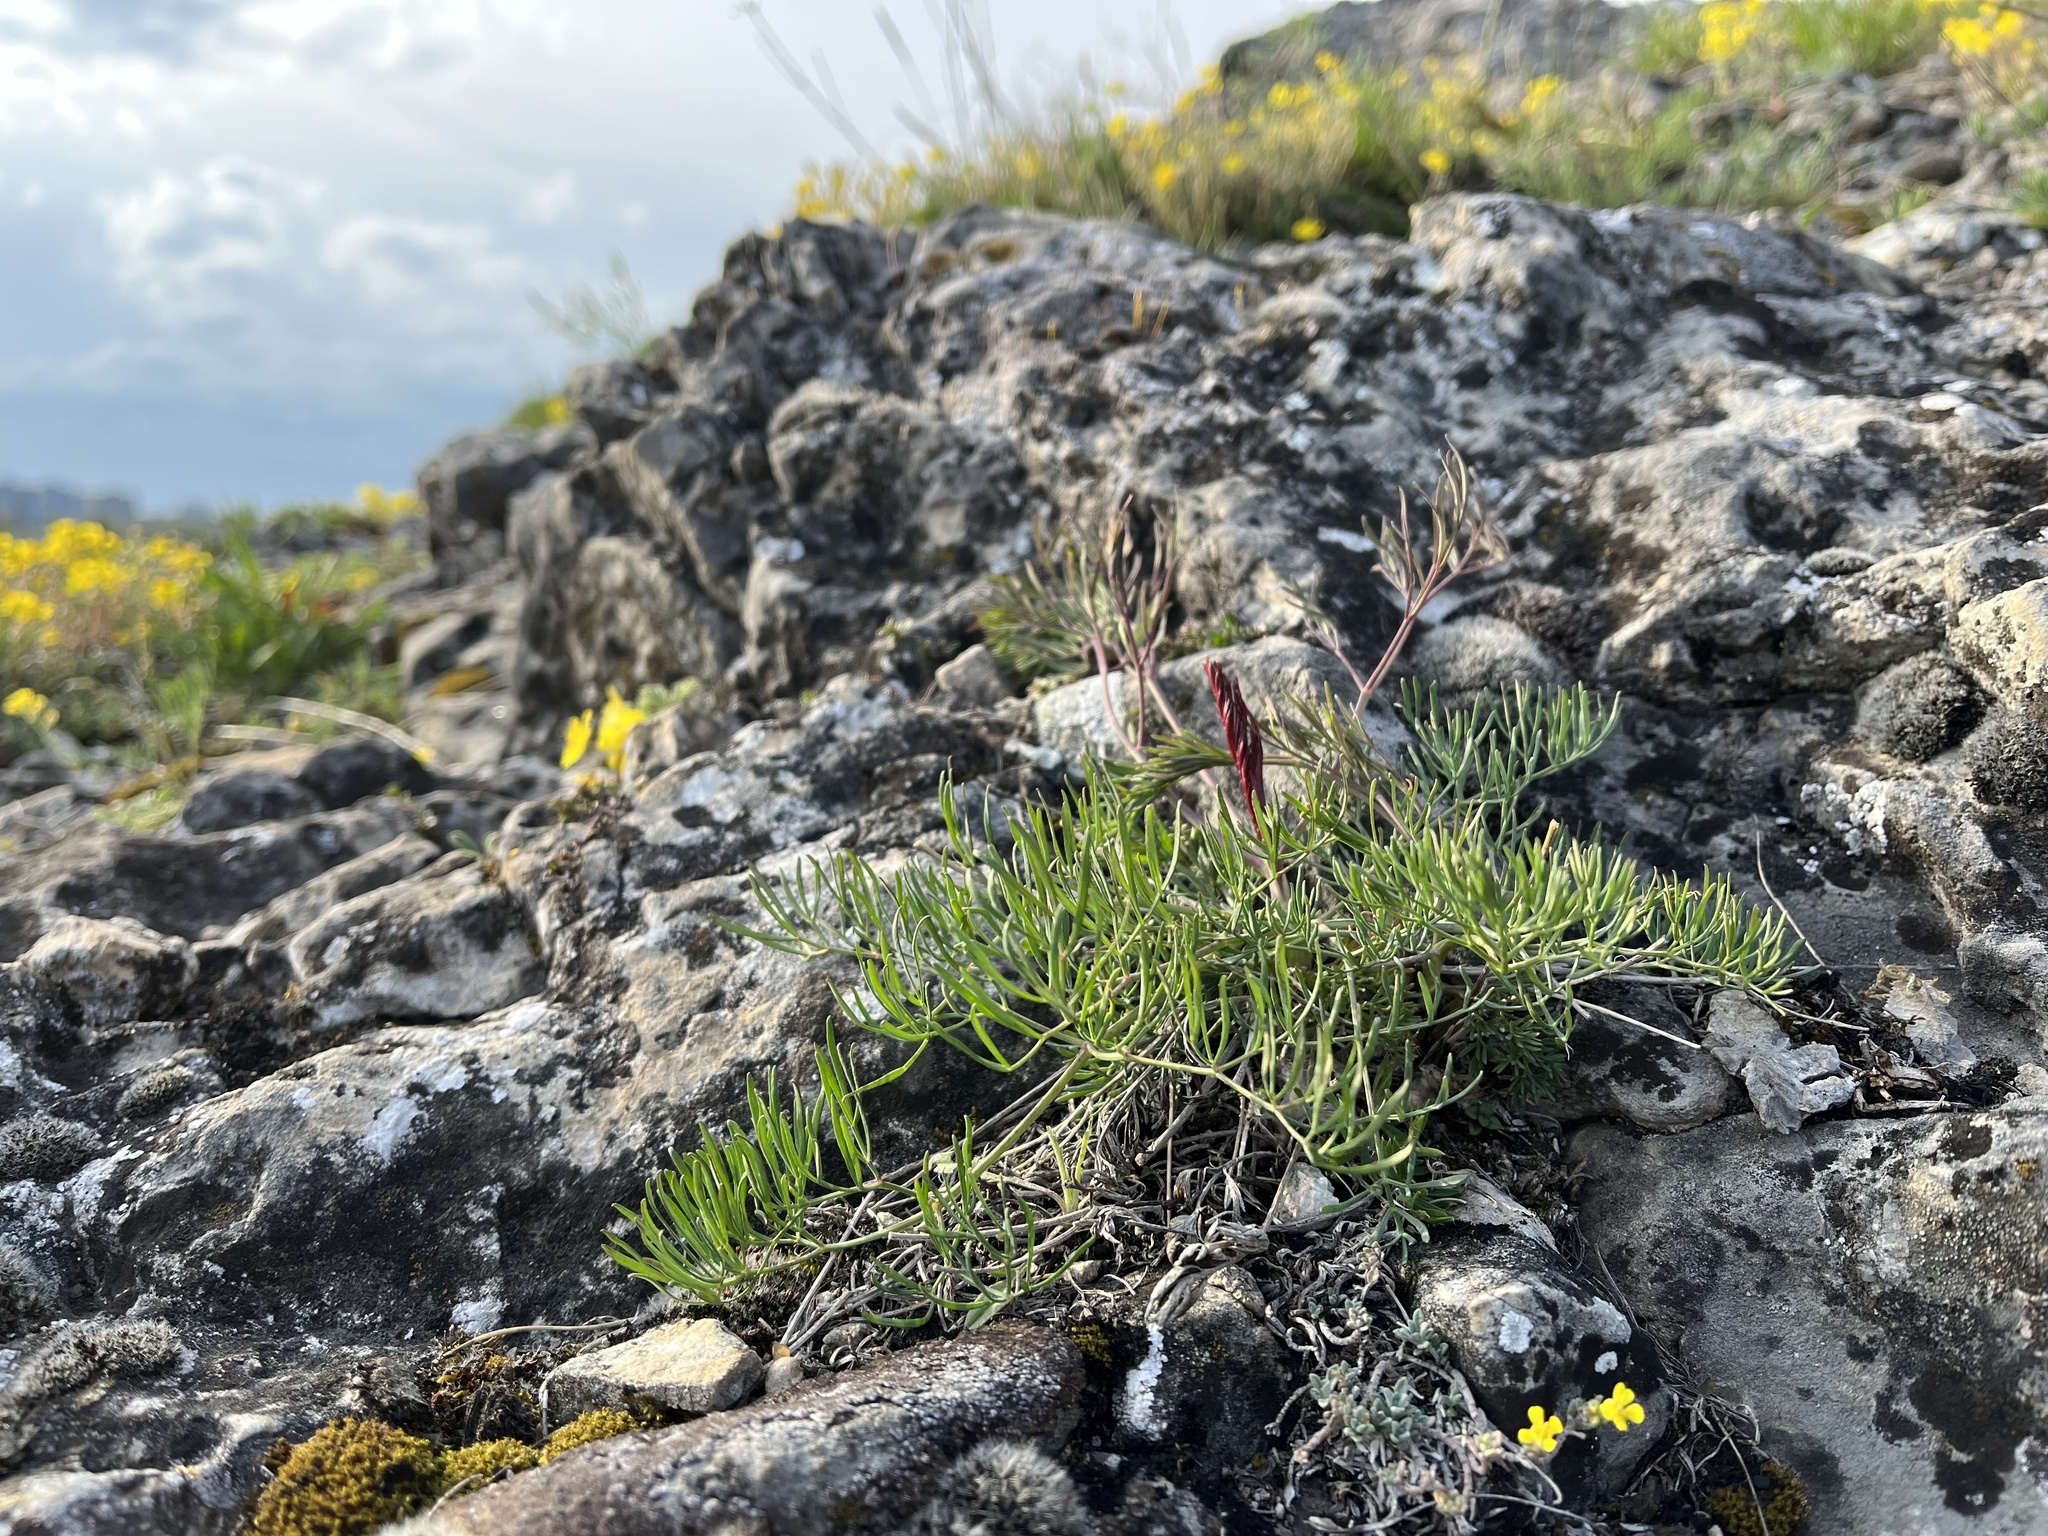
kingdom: Plantae
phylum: Tracheophyta
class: Magnoliopsida
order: Apiales
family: Apiaceae
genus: Seseli
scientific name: Seseli osseum
